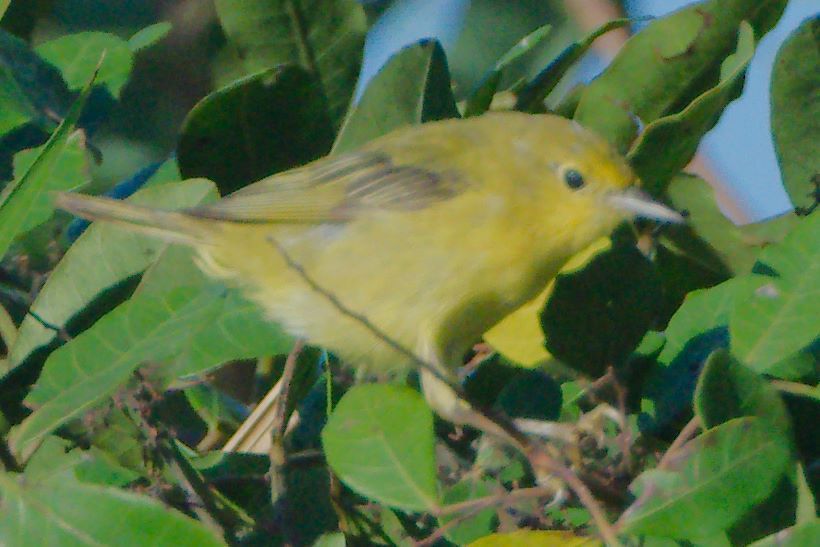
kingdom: Animalia
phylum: Chordata
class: Aves
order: Passeriformes
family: Parulidae
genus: Setophaga
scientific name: Setophaga petechia
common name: Yellow warbler
